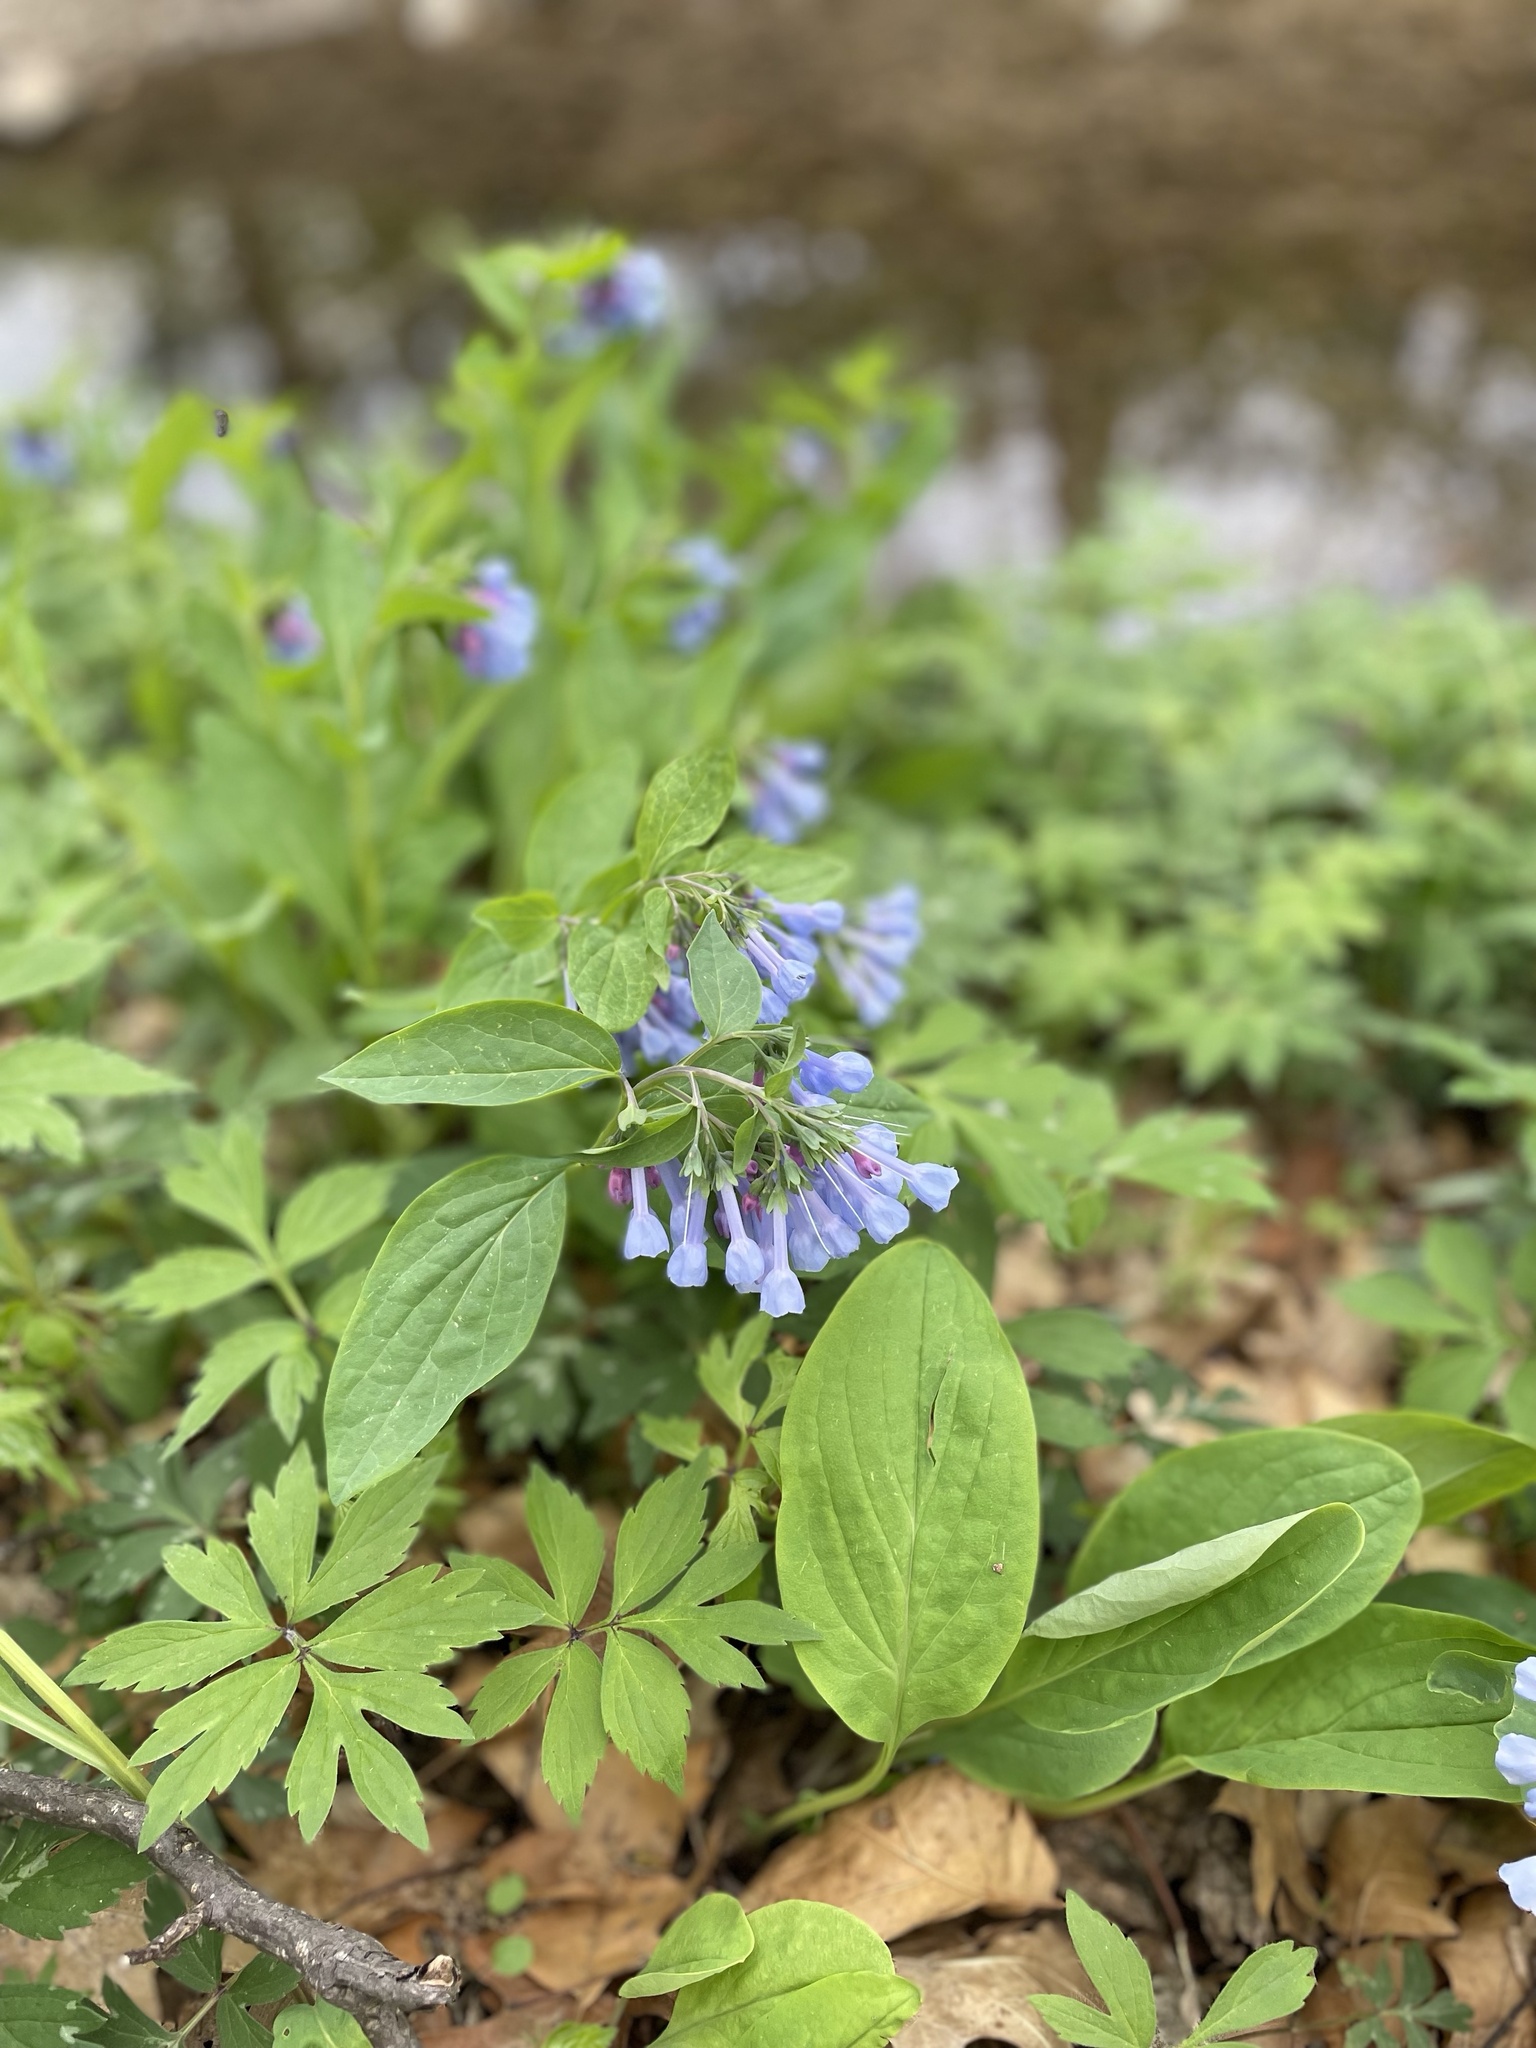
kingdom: Plantae
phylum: Tracheophyta
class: Magnoliopsida
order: Boraginales
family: Boraginaceae
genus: Mertensia
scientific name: Mertensia virginica
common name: Virginia bluebells
